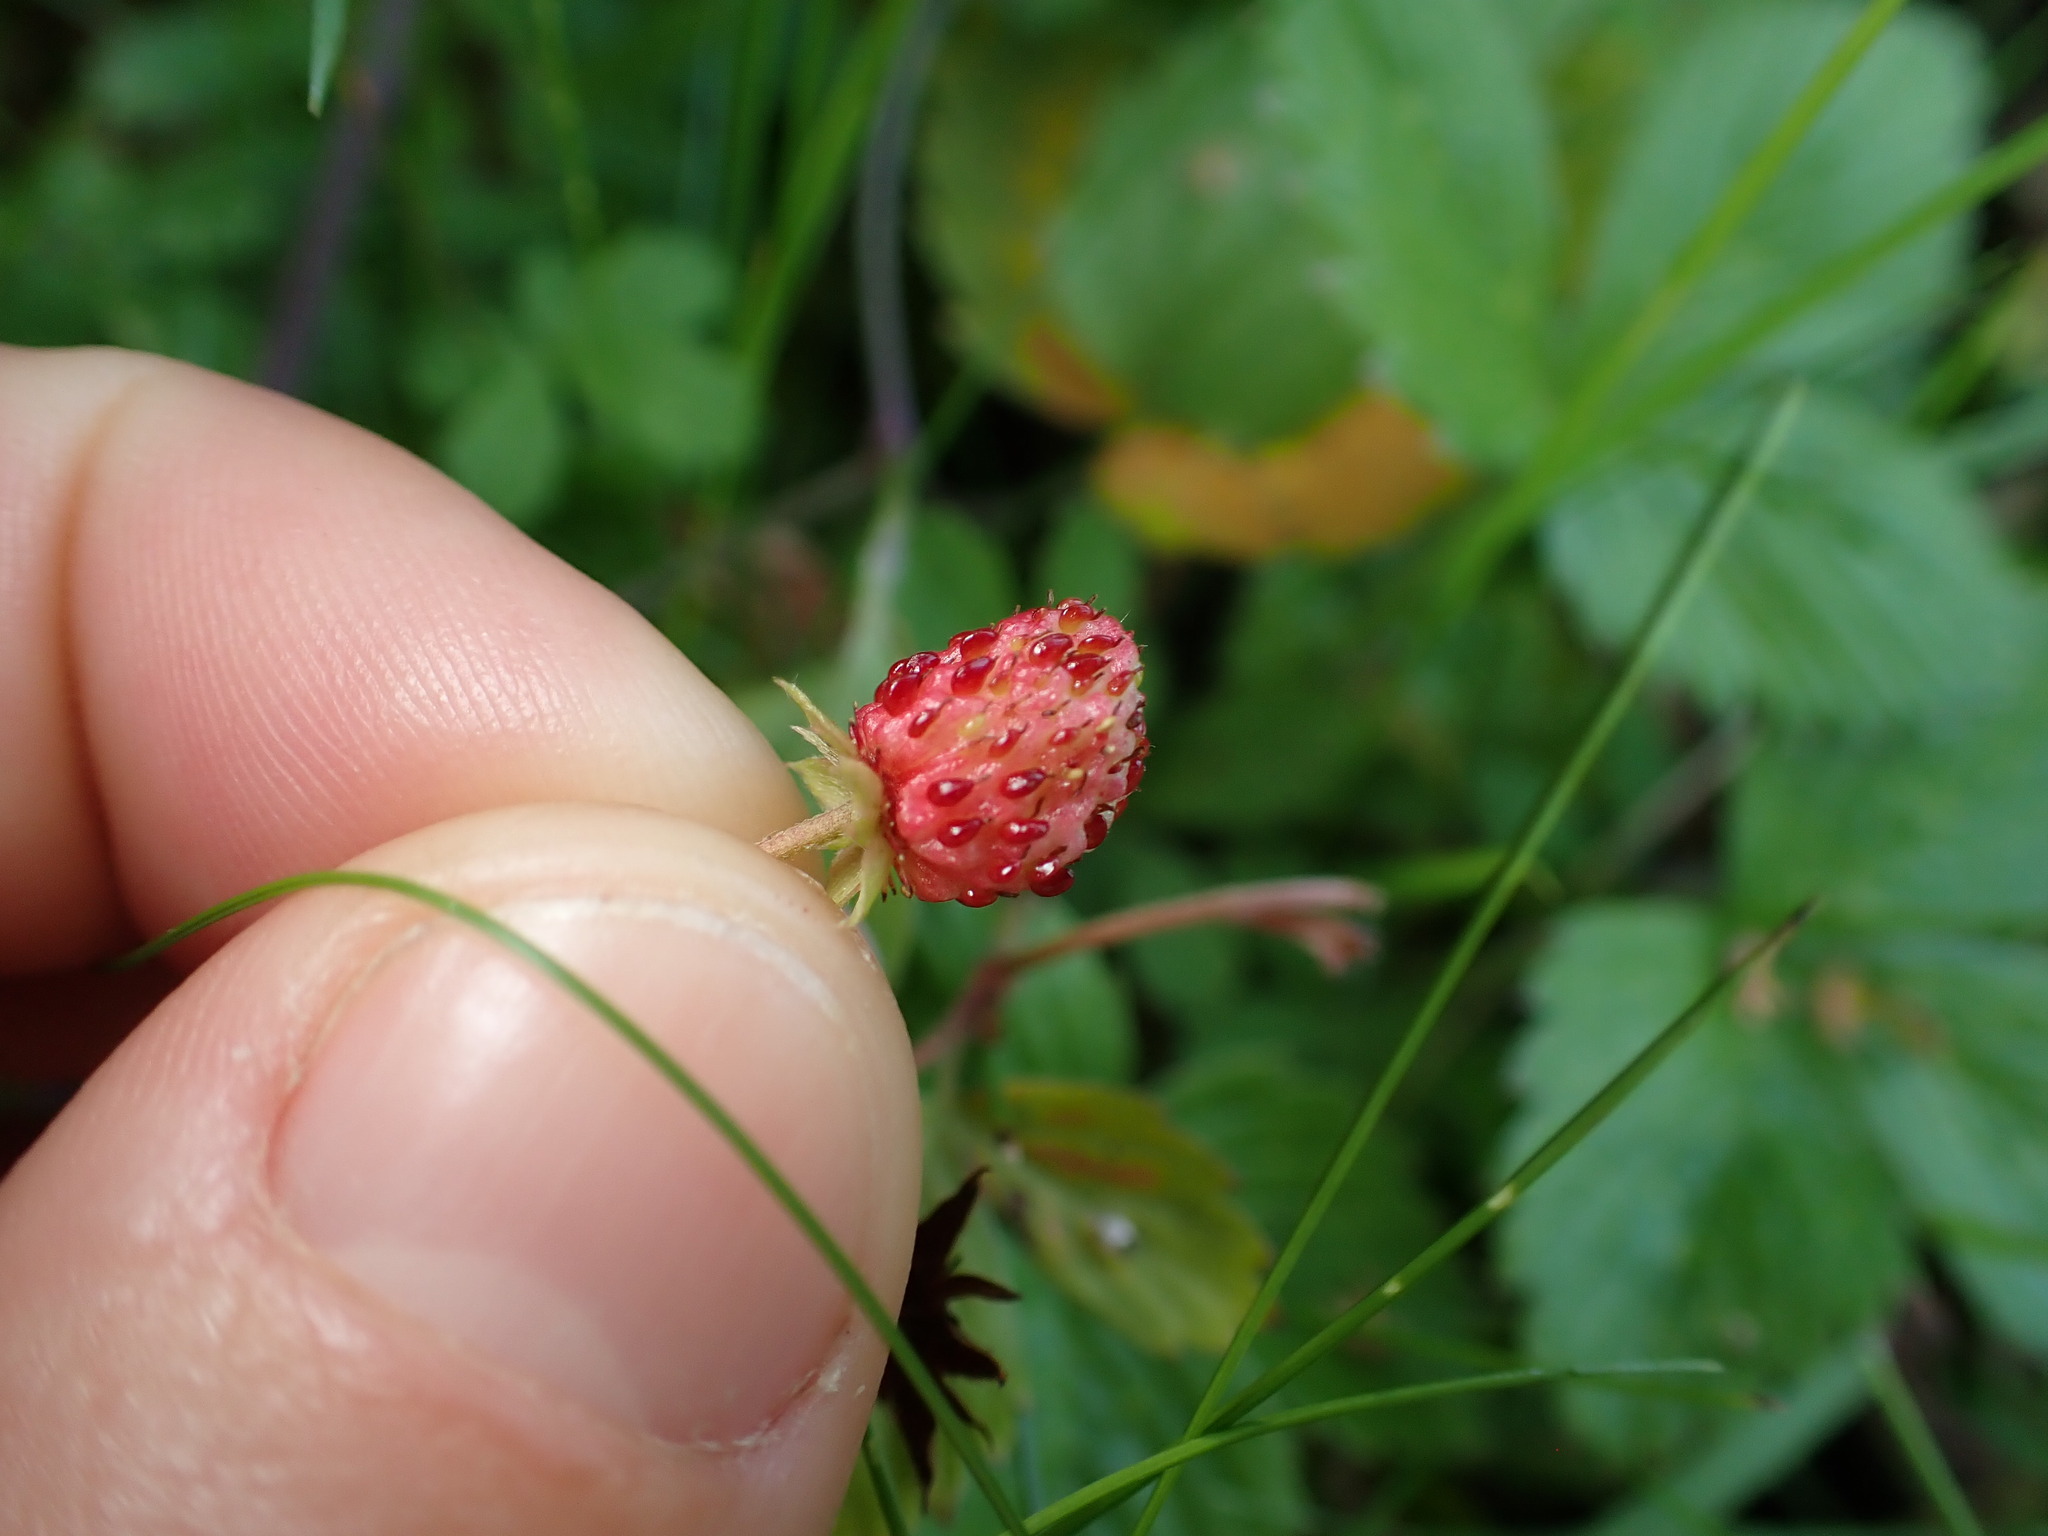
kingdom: Plantae
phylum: Tracheophyta
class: Magnoliopsida
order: Rosales
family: Rosaceae
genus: Fragaria
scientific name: Fragaria vesca
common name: Wild strawberry
